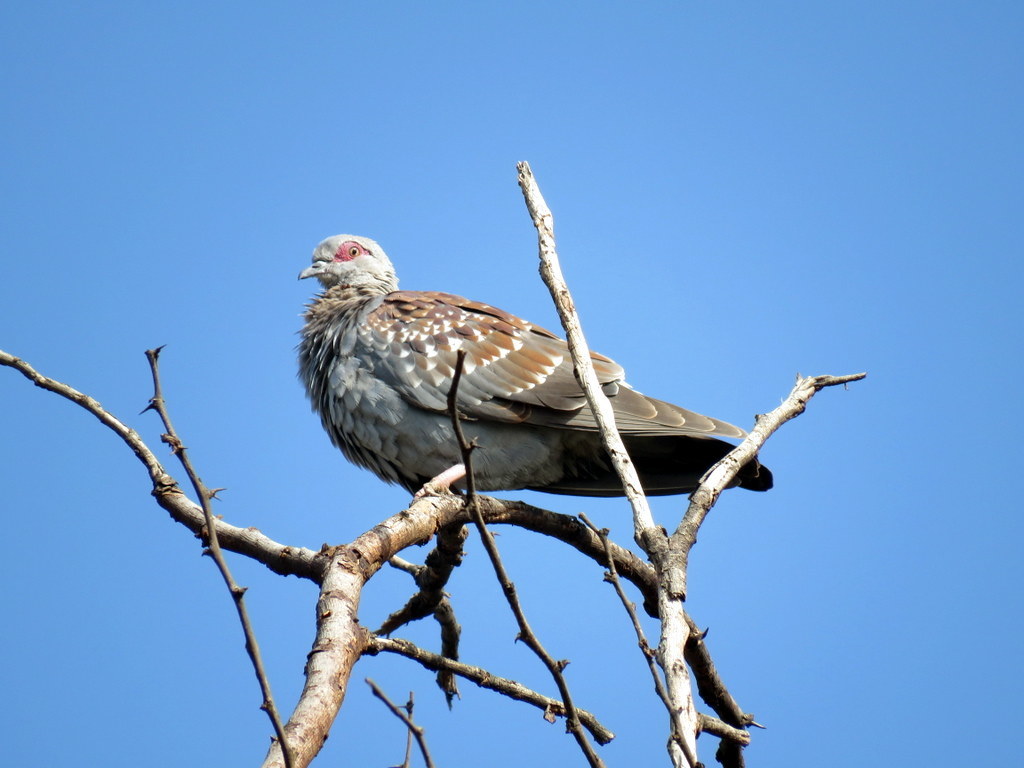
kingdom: Animalia
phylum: Chordata
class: Aves
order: Columbiformes
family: Columbidae
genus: Columba
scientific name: Columba guinea
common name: Speckled pigeon
